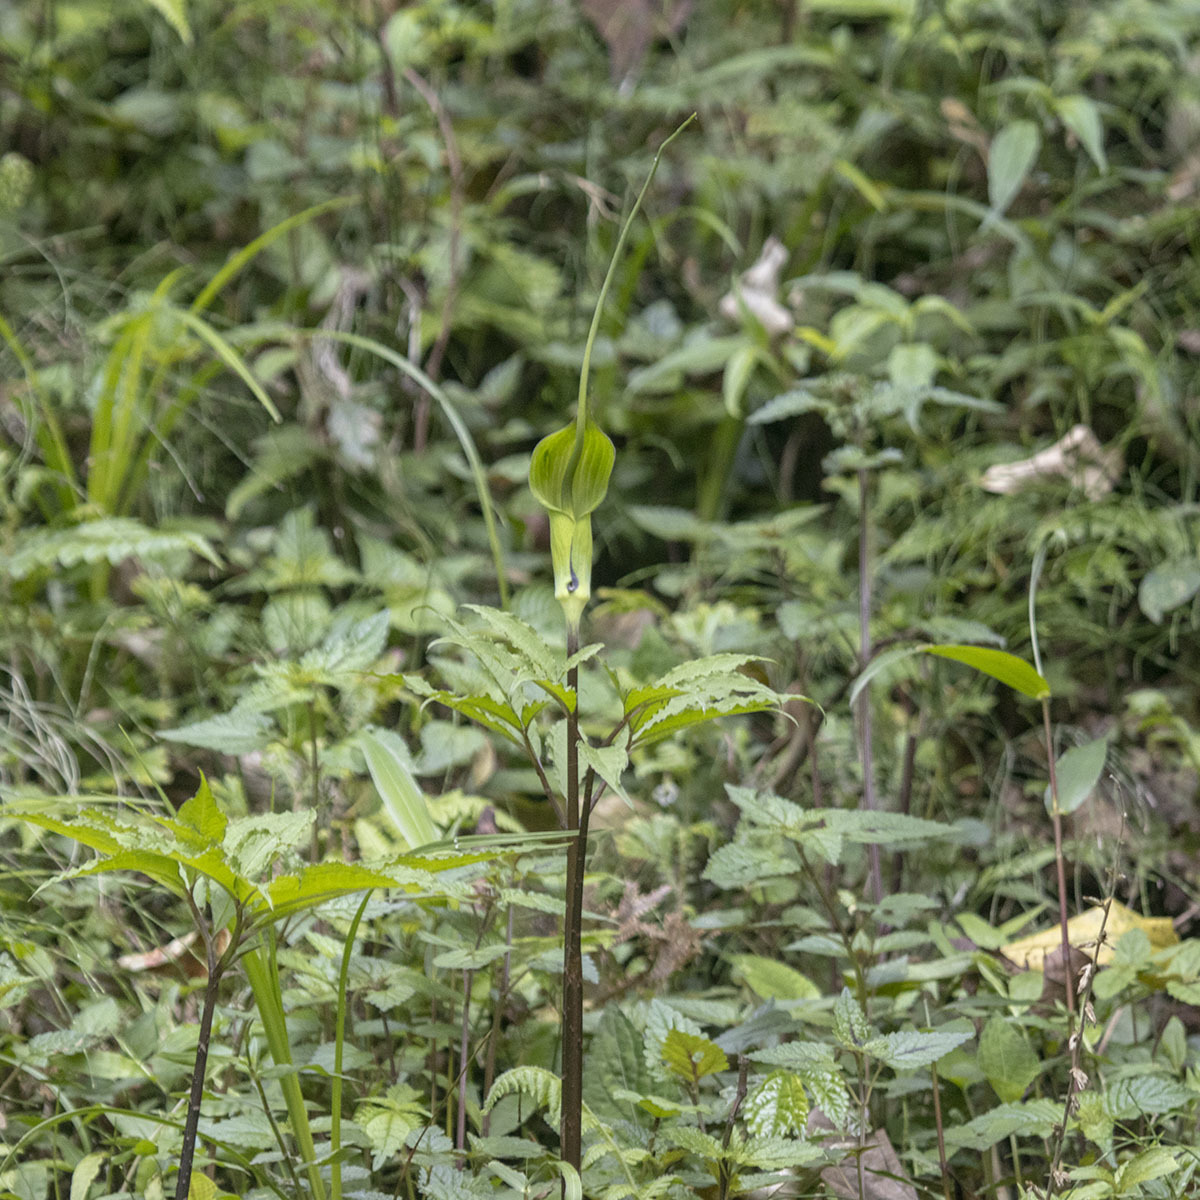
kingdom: Plantae
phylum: Tracheophyta
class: Liliopsida
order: Alismatales
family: Araceae
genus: Arisaema
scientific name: Arisaema tortuosum
